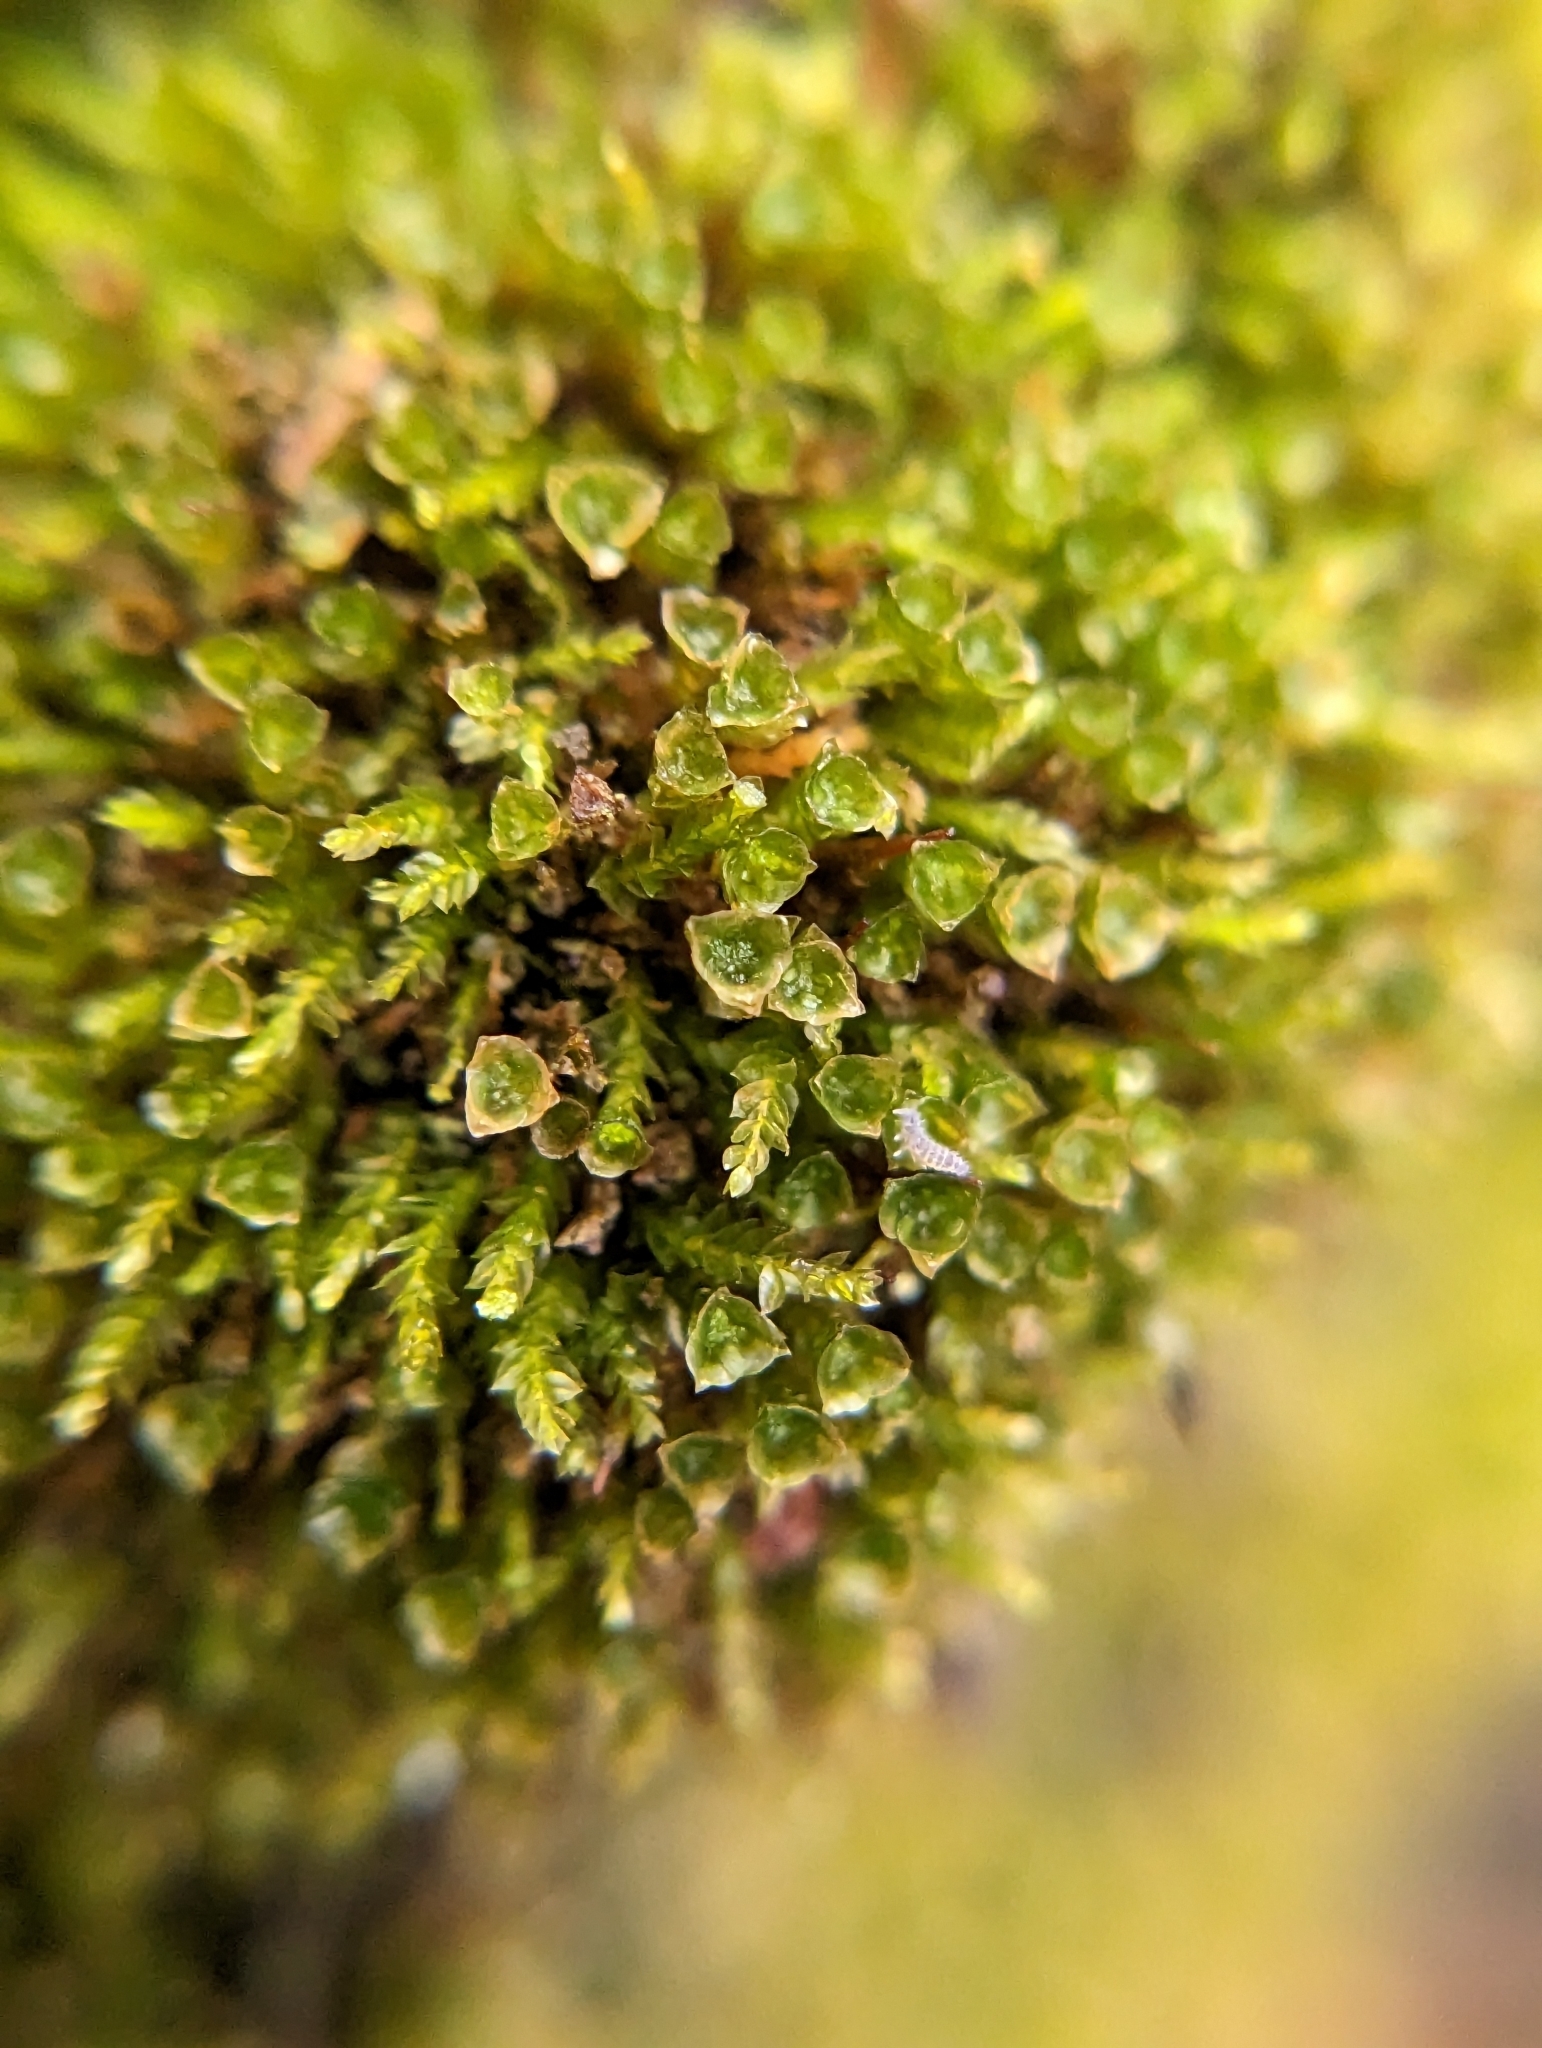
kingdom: Plantae
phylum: Bryophyta
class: Polytrichopsida
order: Tetraphidales
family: Tetraphidaceae
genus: Tetraphis
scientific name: Tetraphis pellucida
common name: Common four-toothed moss
